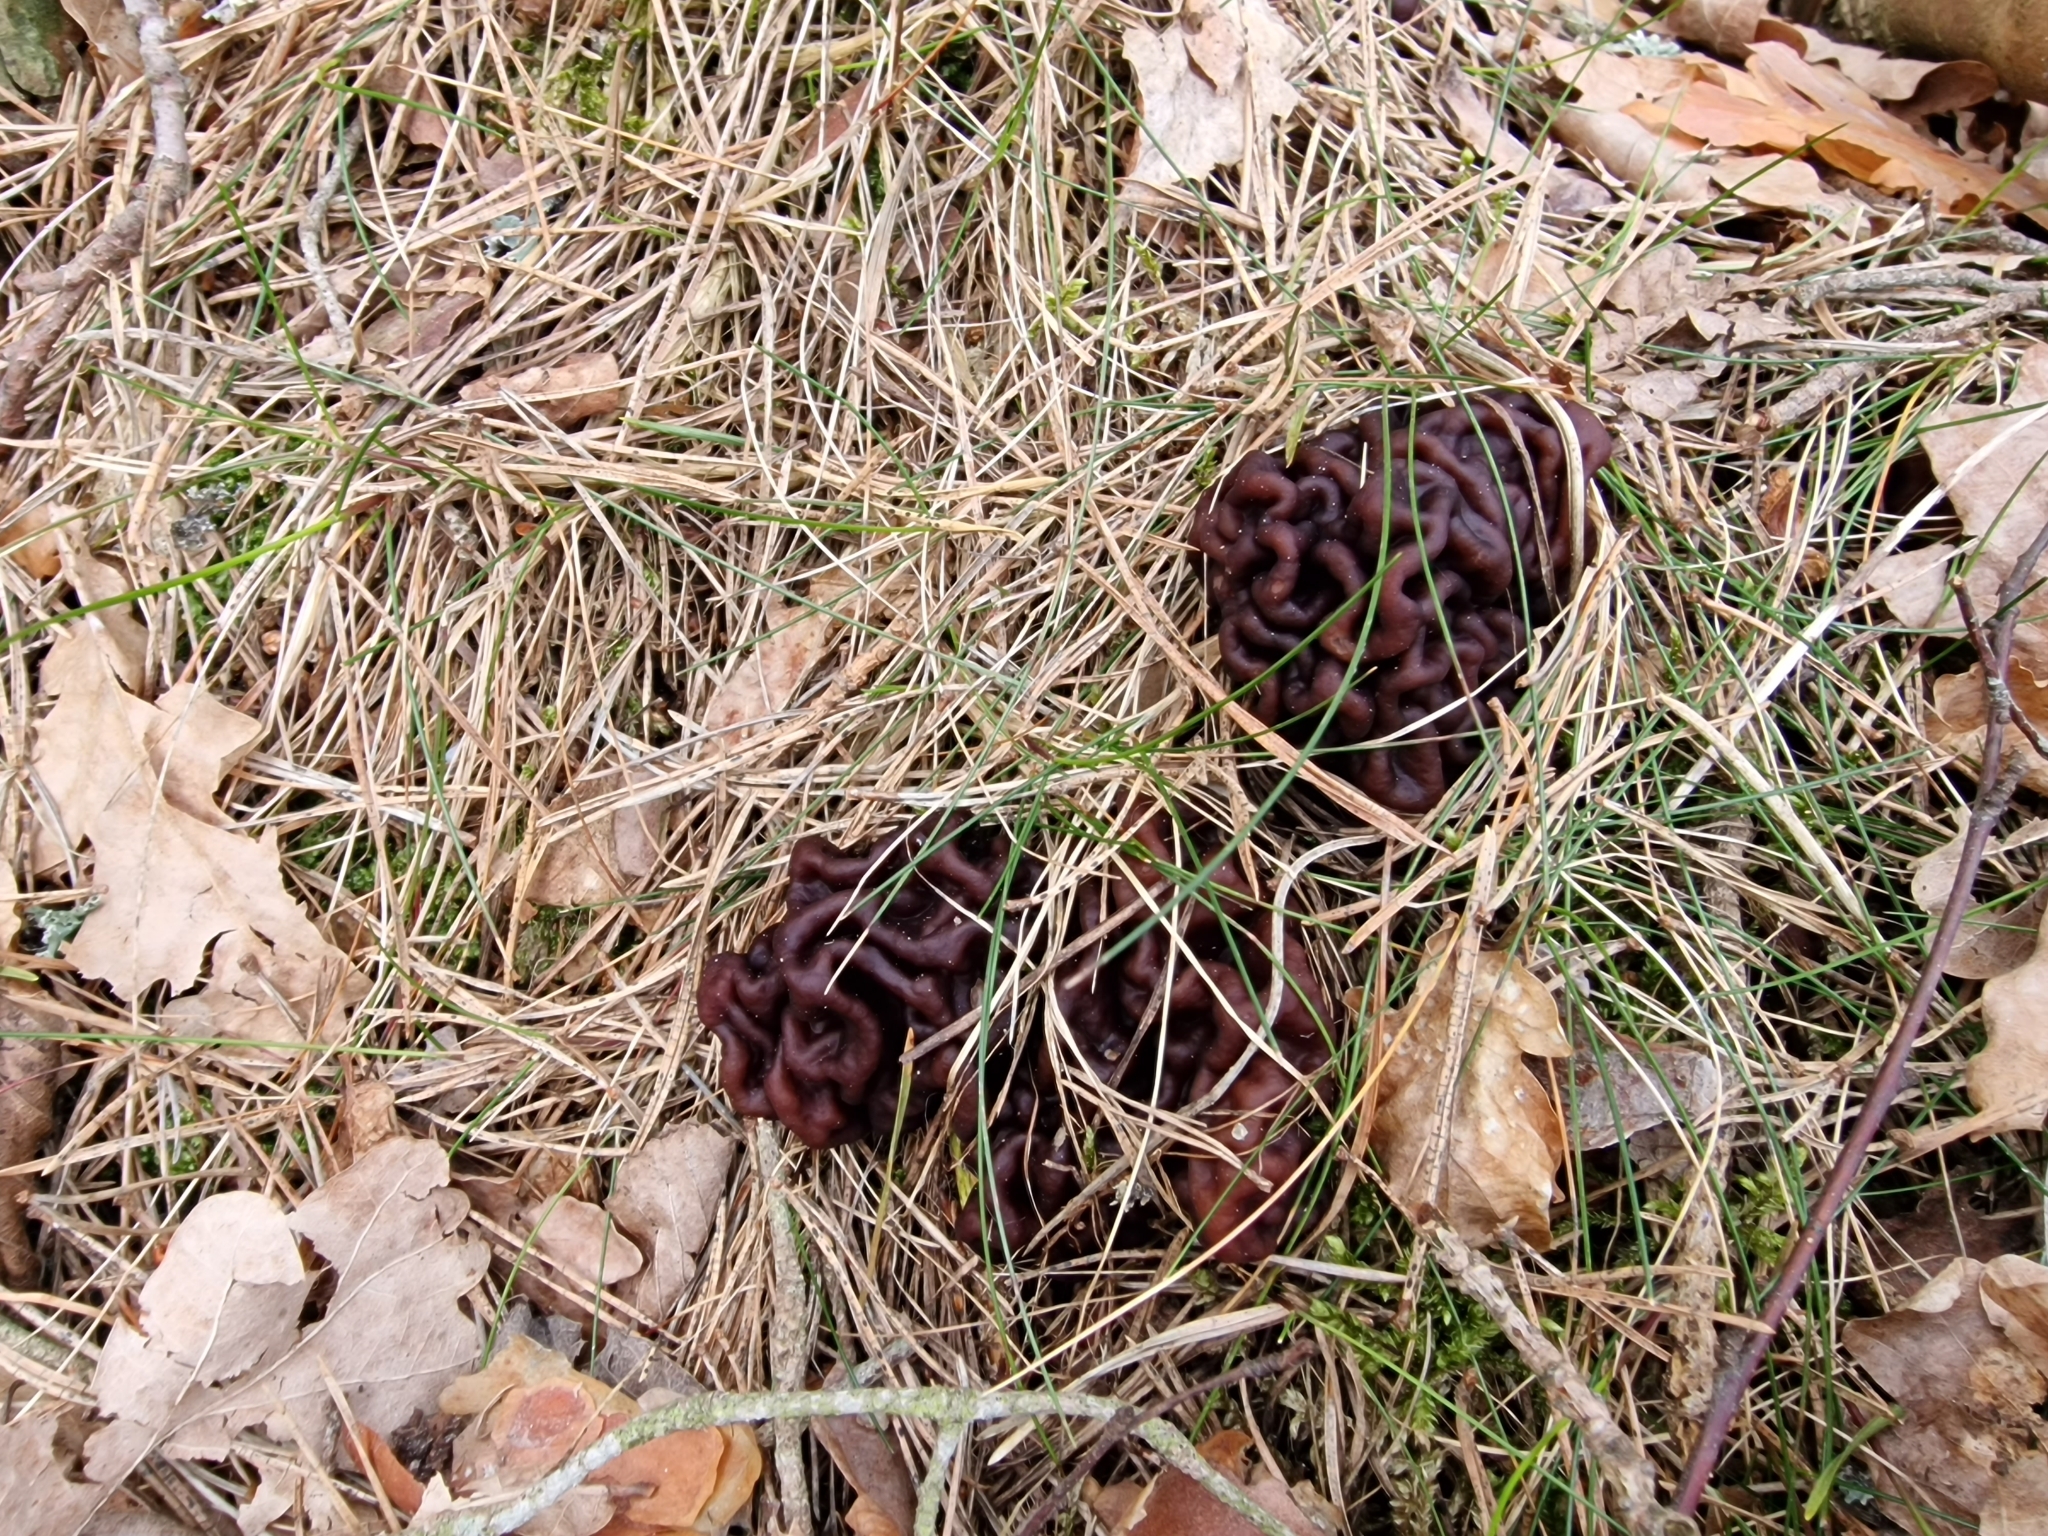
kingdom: Fungi
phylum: Ascomycota
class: Pezizomycetes
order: Pezizales
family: Discinaceae
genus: Gyromitra
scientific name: Gyromitra esculenta
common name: False morel
